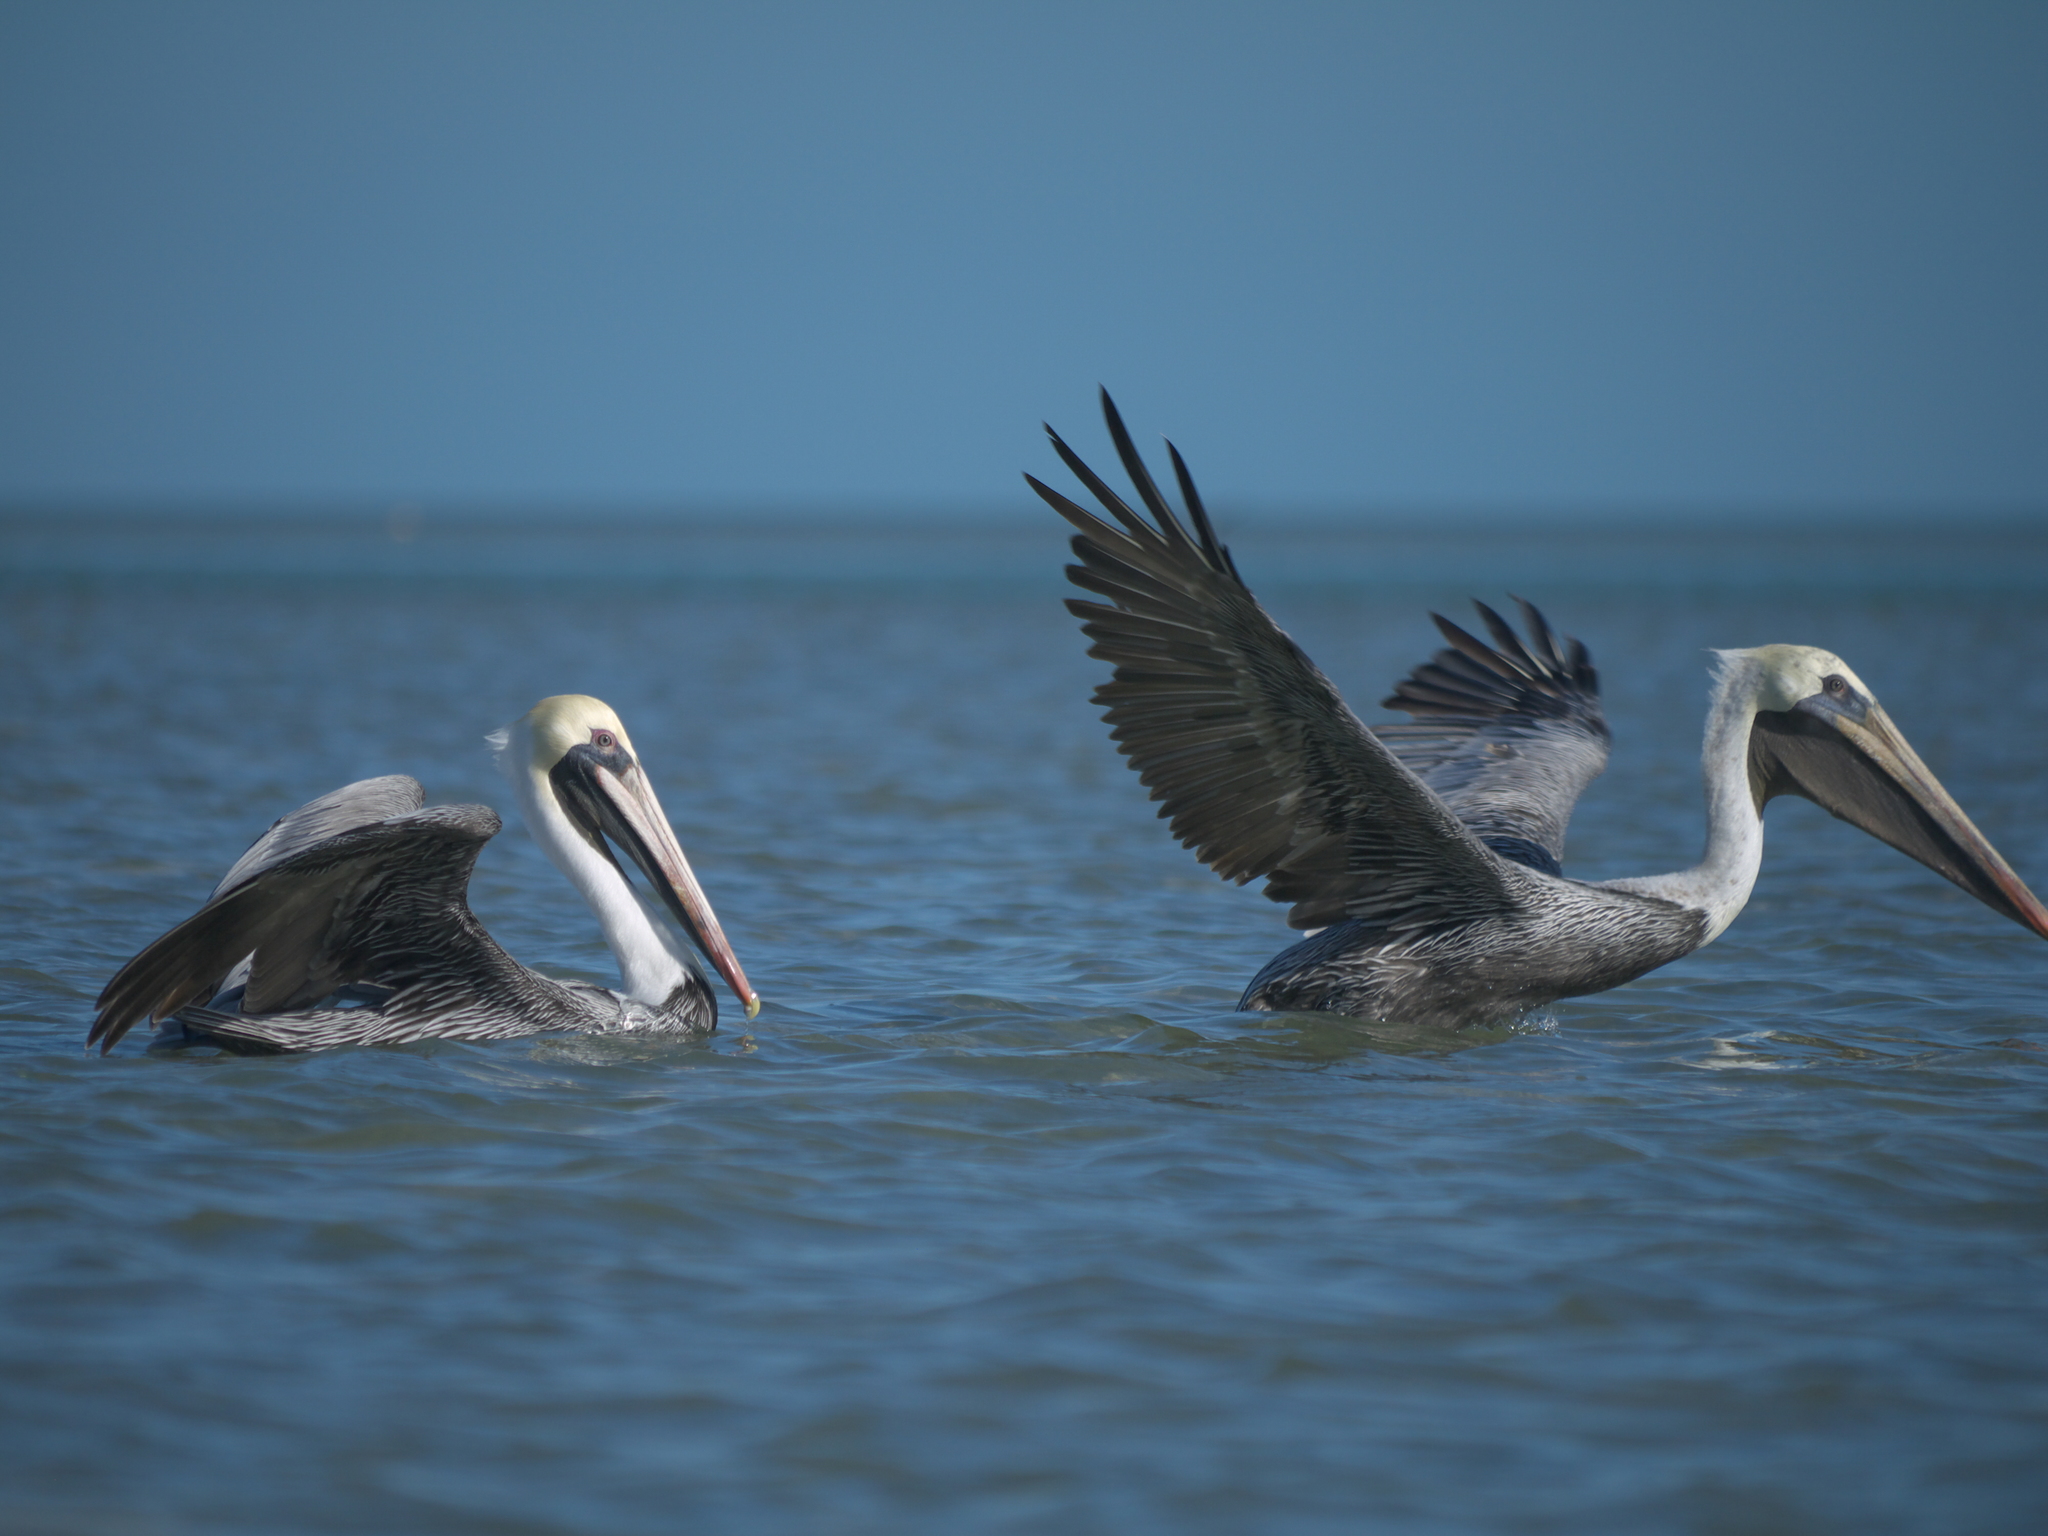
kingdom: Animalia
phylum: Chordata
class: Aves
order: Pelecaniformes
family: Pelecanidae
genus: Pelecanus
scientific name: Pelecanus occidentalis
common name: Brown pelican
